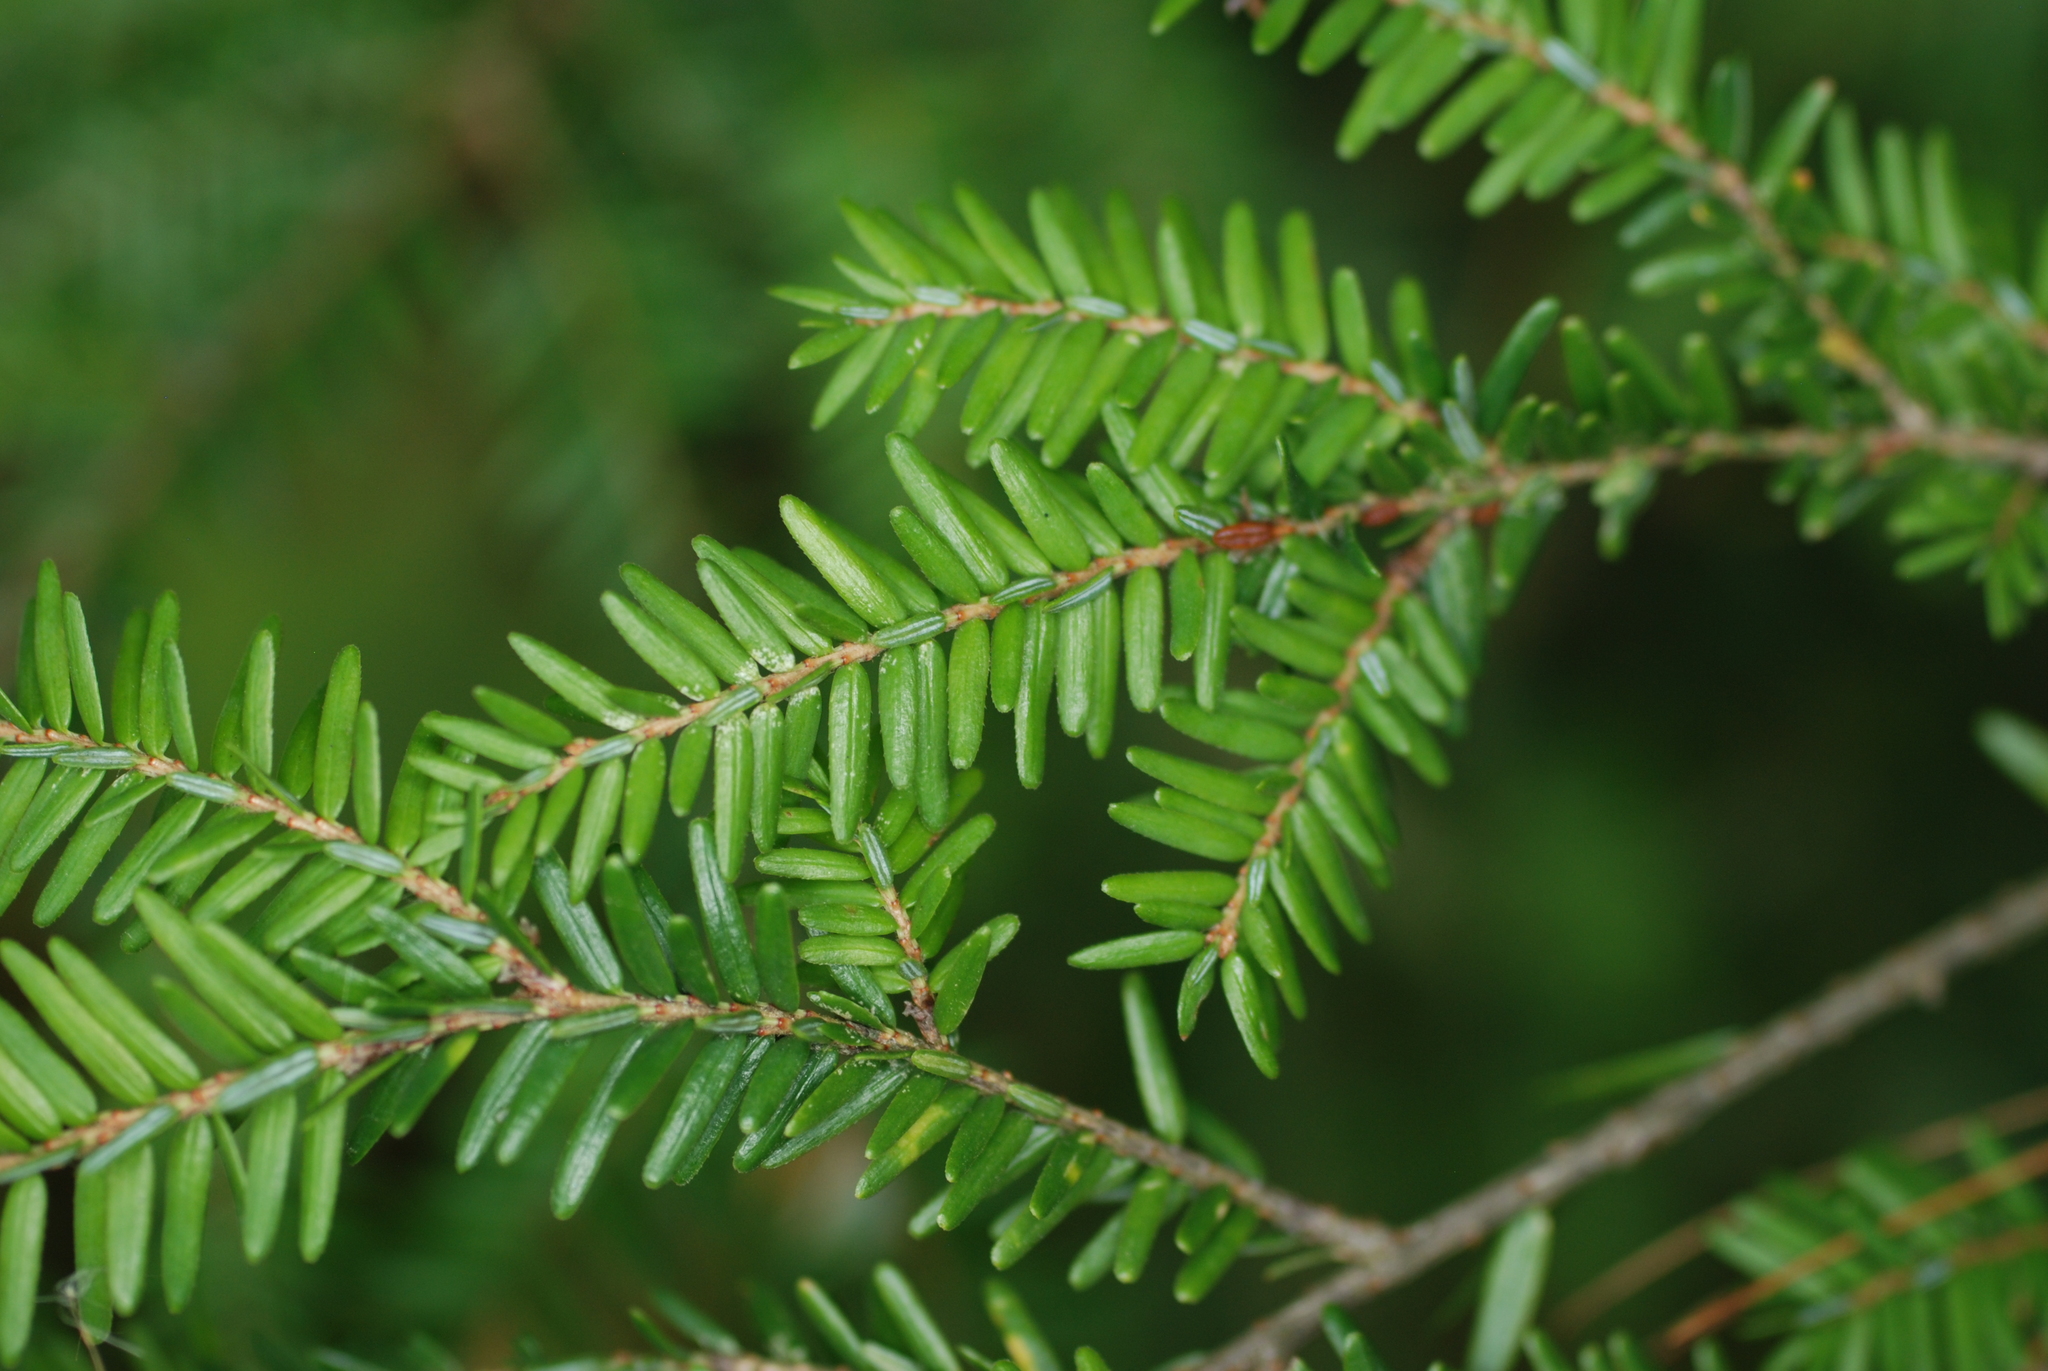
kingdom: Plantae
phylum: Tracheophyta
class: Pinopsida
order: Pinales
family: Pinaceae
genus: Tsuga
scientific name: Tsuga canadensis
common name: Eastern hemlock
